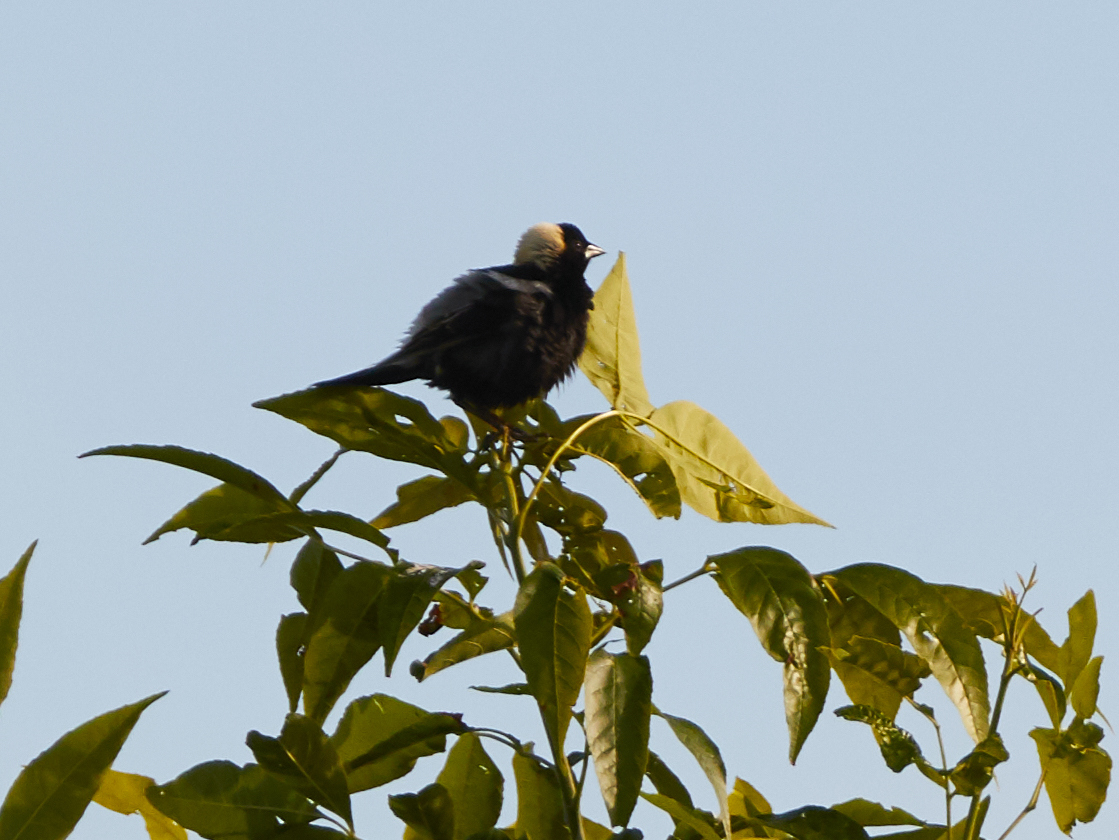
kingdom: Animalia
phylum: Chordata
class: Aves
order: Passeriformes
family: Icteridae
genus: Dolichonyx
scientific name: Dolichonyx oryzivorus
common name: Bobolink
